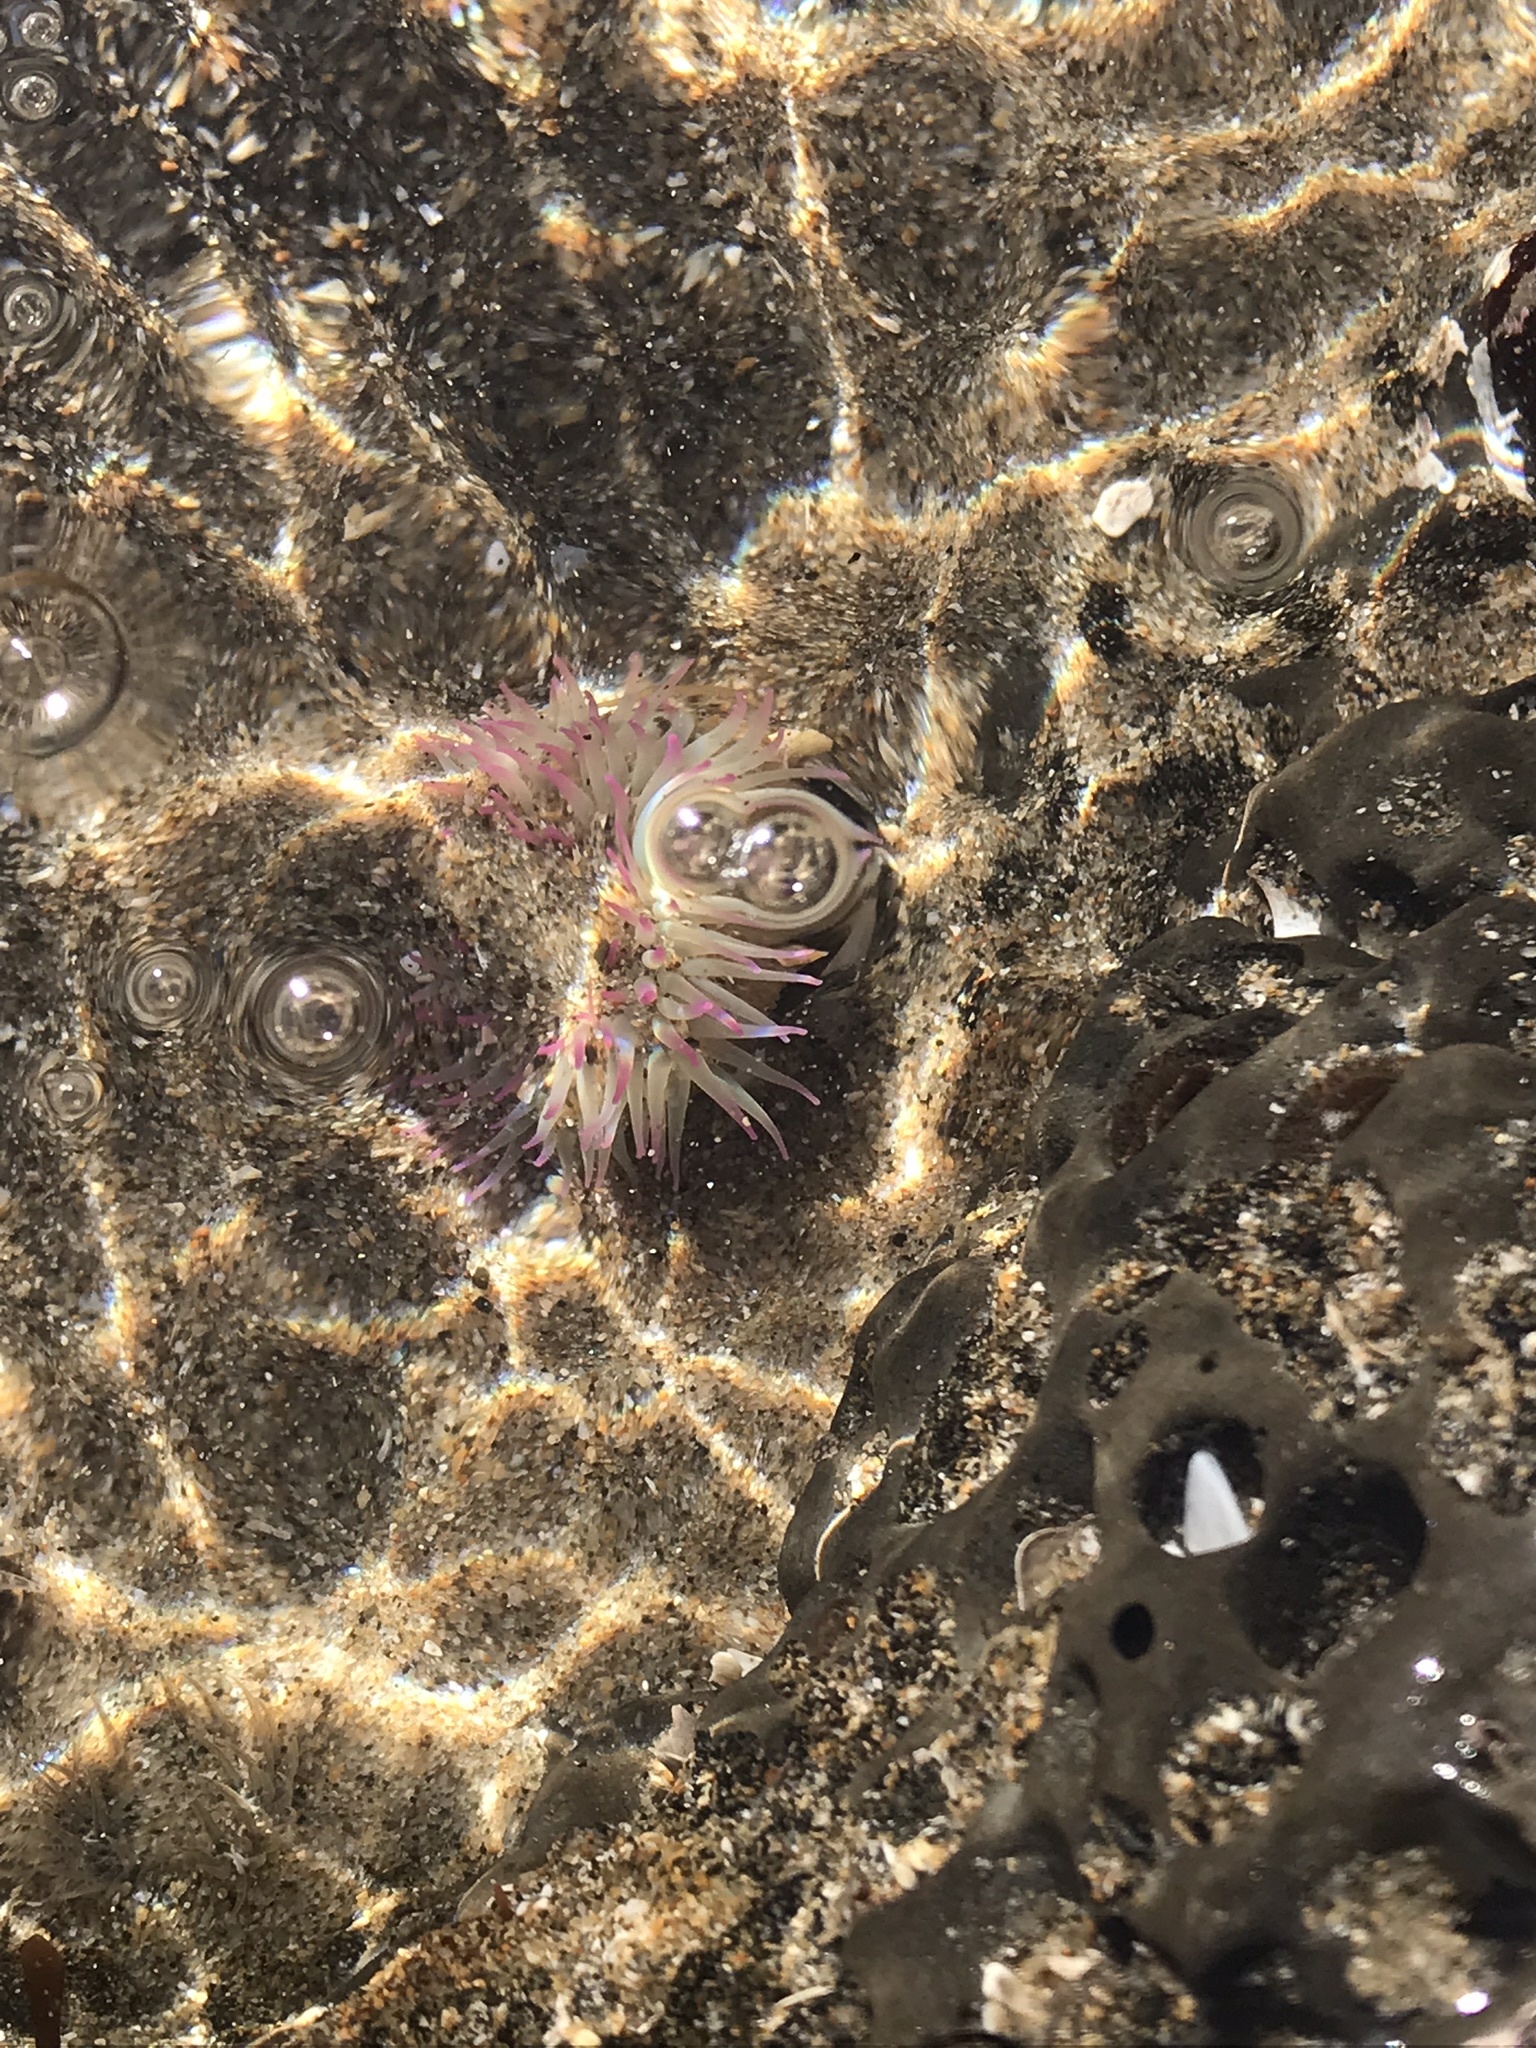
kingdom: Animalia
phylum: Cnidaria
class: Anthozoa
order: Actiniaria
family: Actiniidae
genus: Anthopleura
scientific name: Anthopleura elegantissima
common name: Clonal anemone
